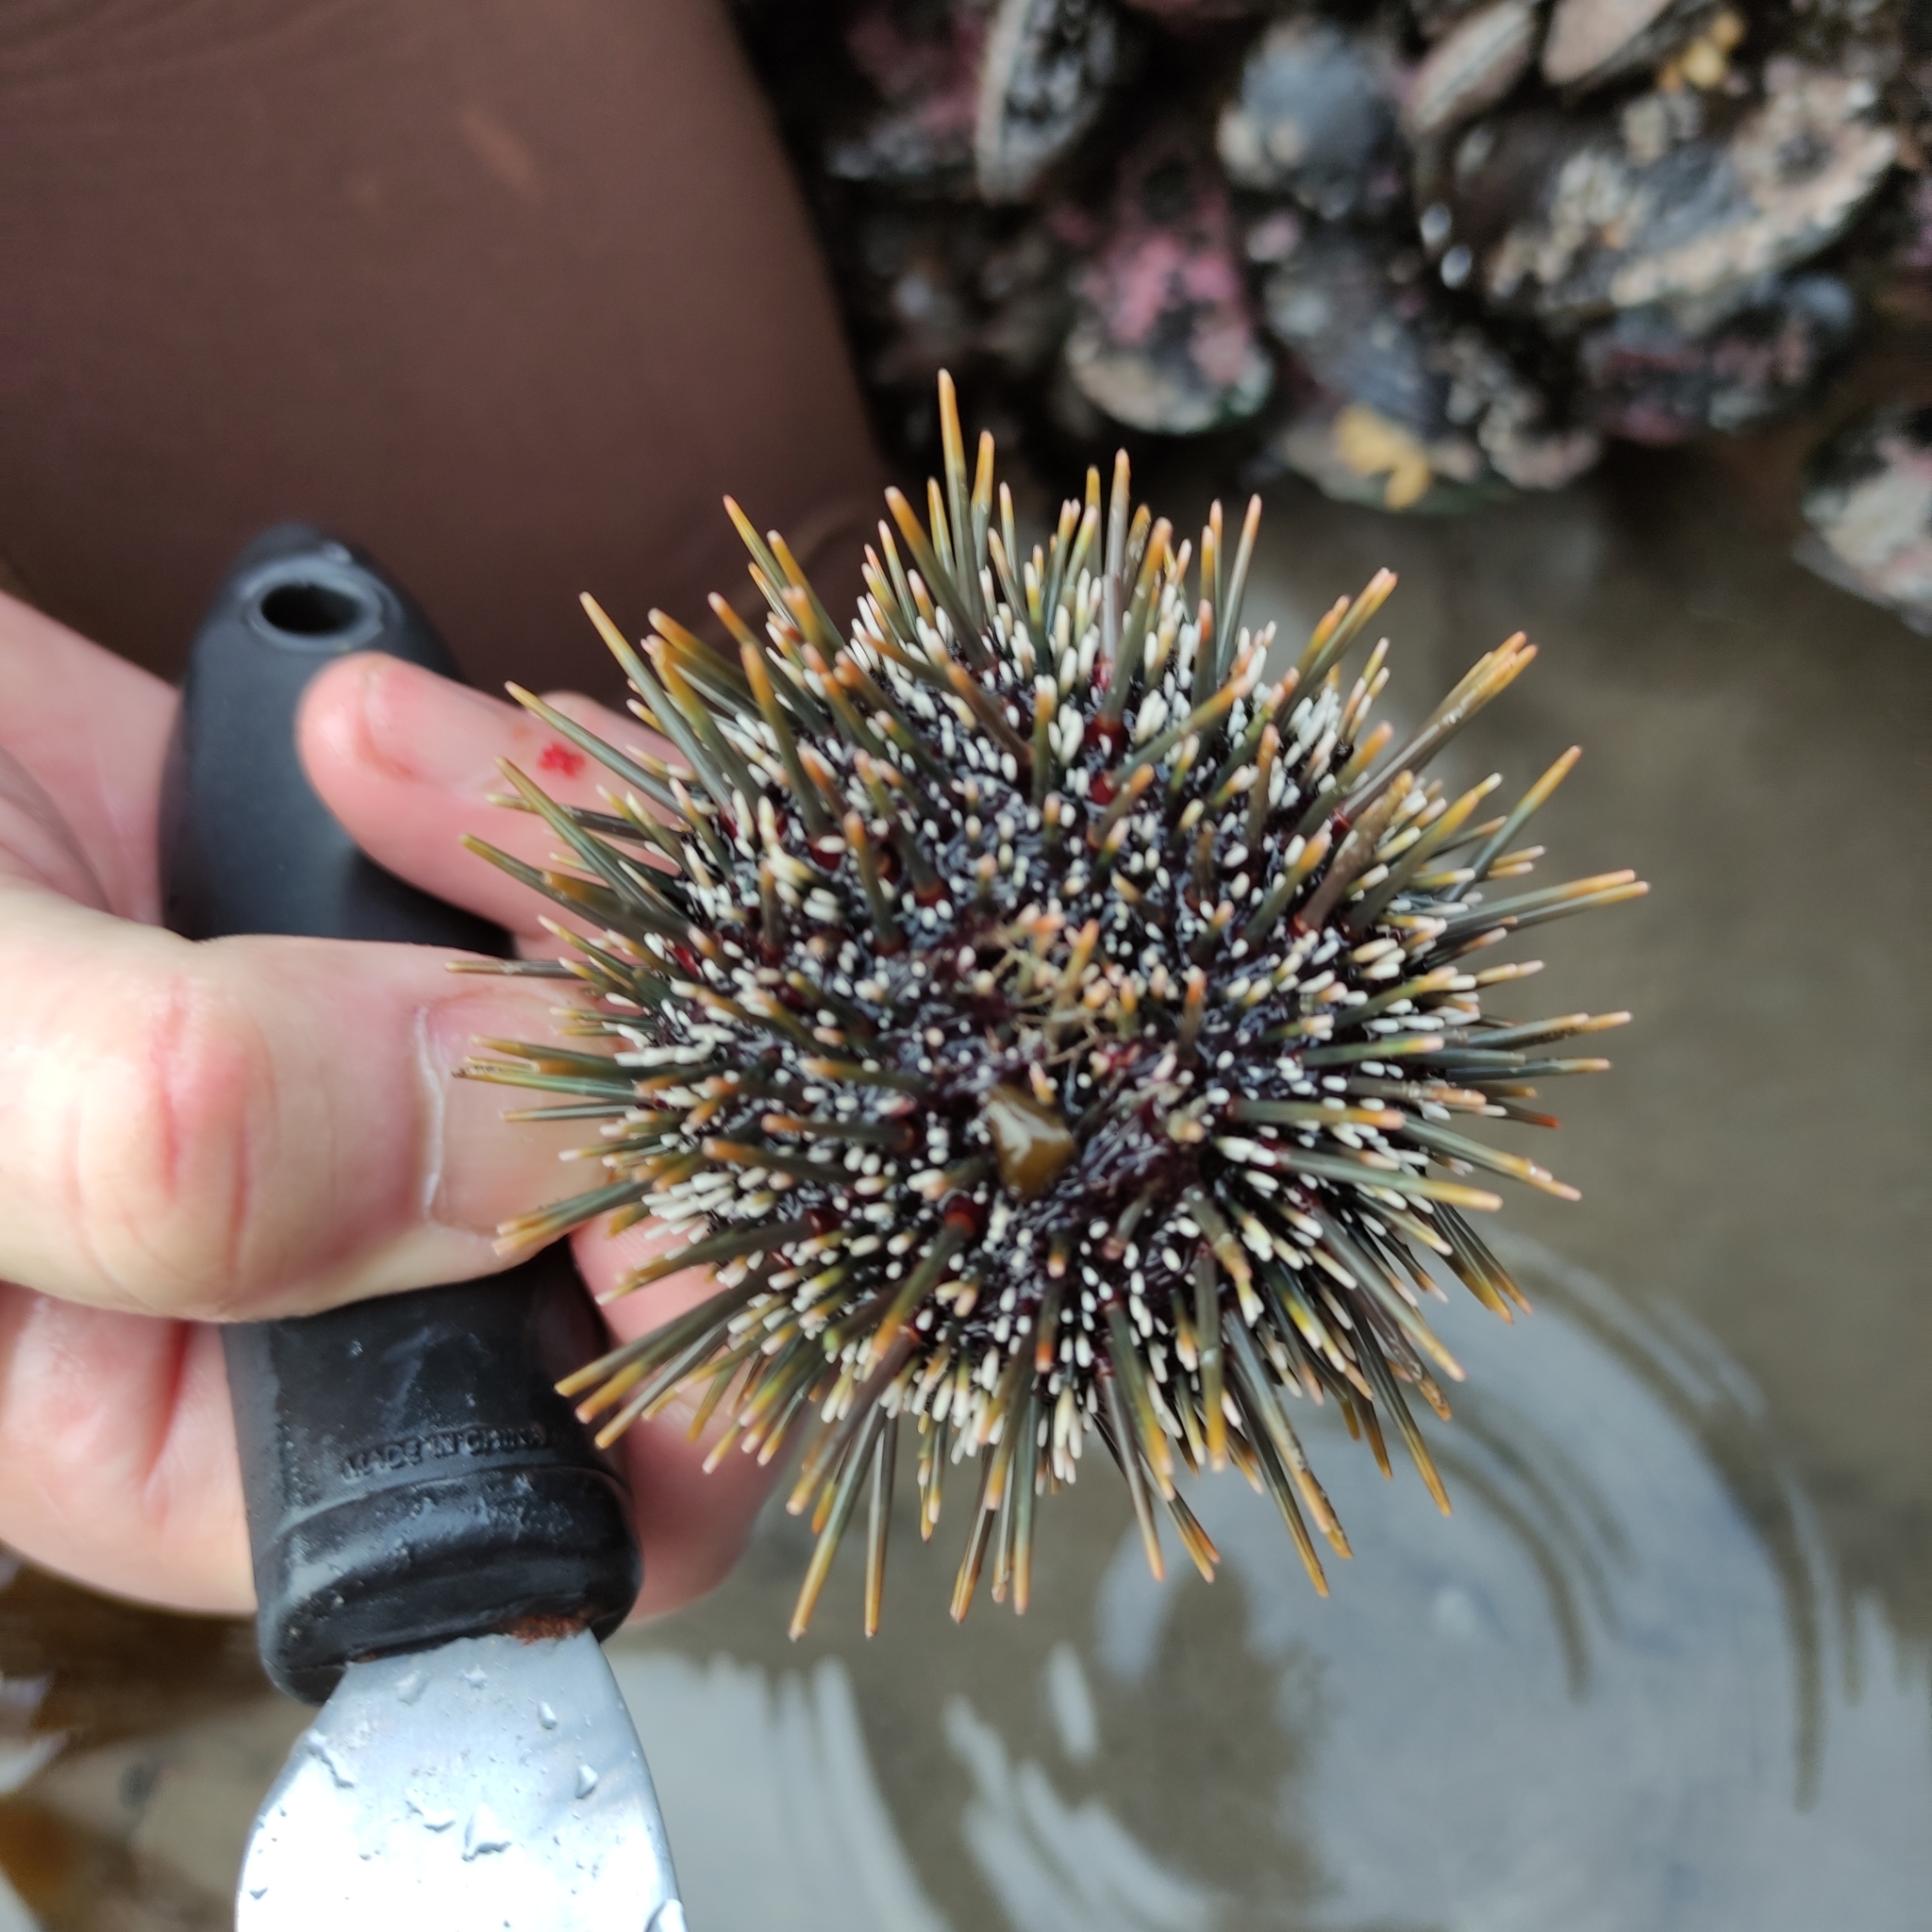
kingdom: Animalia
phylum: Echinodermata
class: Echinoidea
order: Camarodonta
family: Echinometridae
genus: Evechinus
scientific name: Evechinus chloroticus
